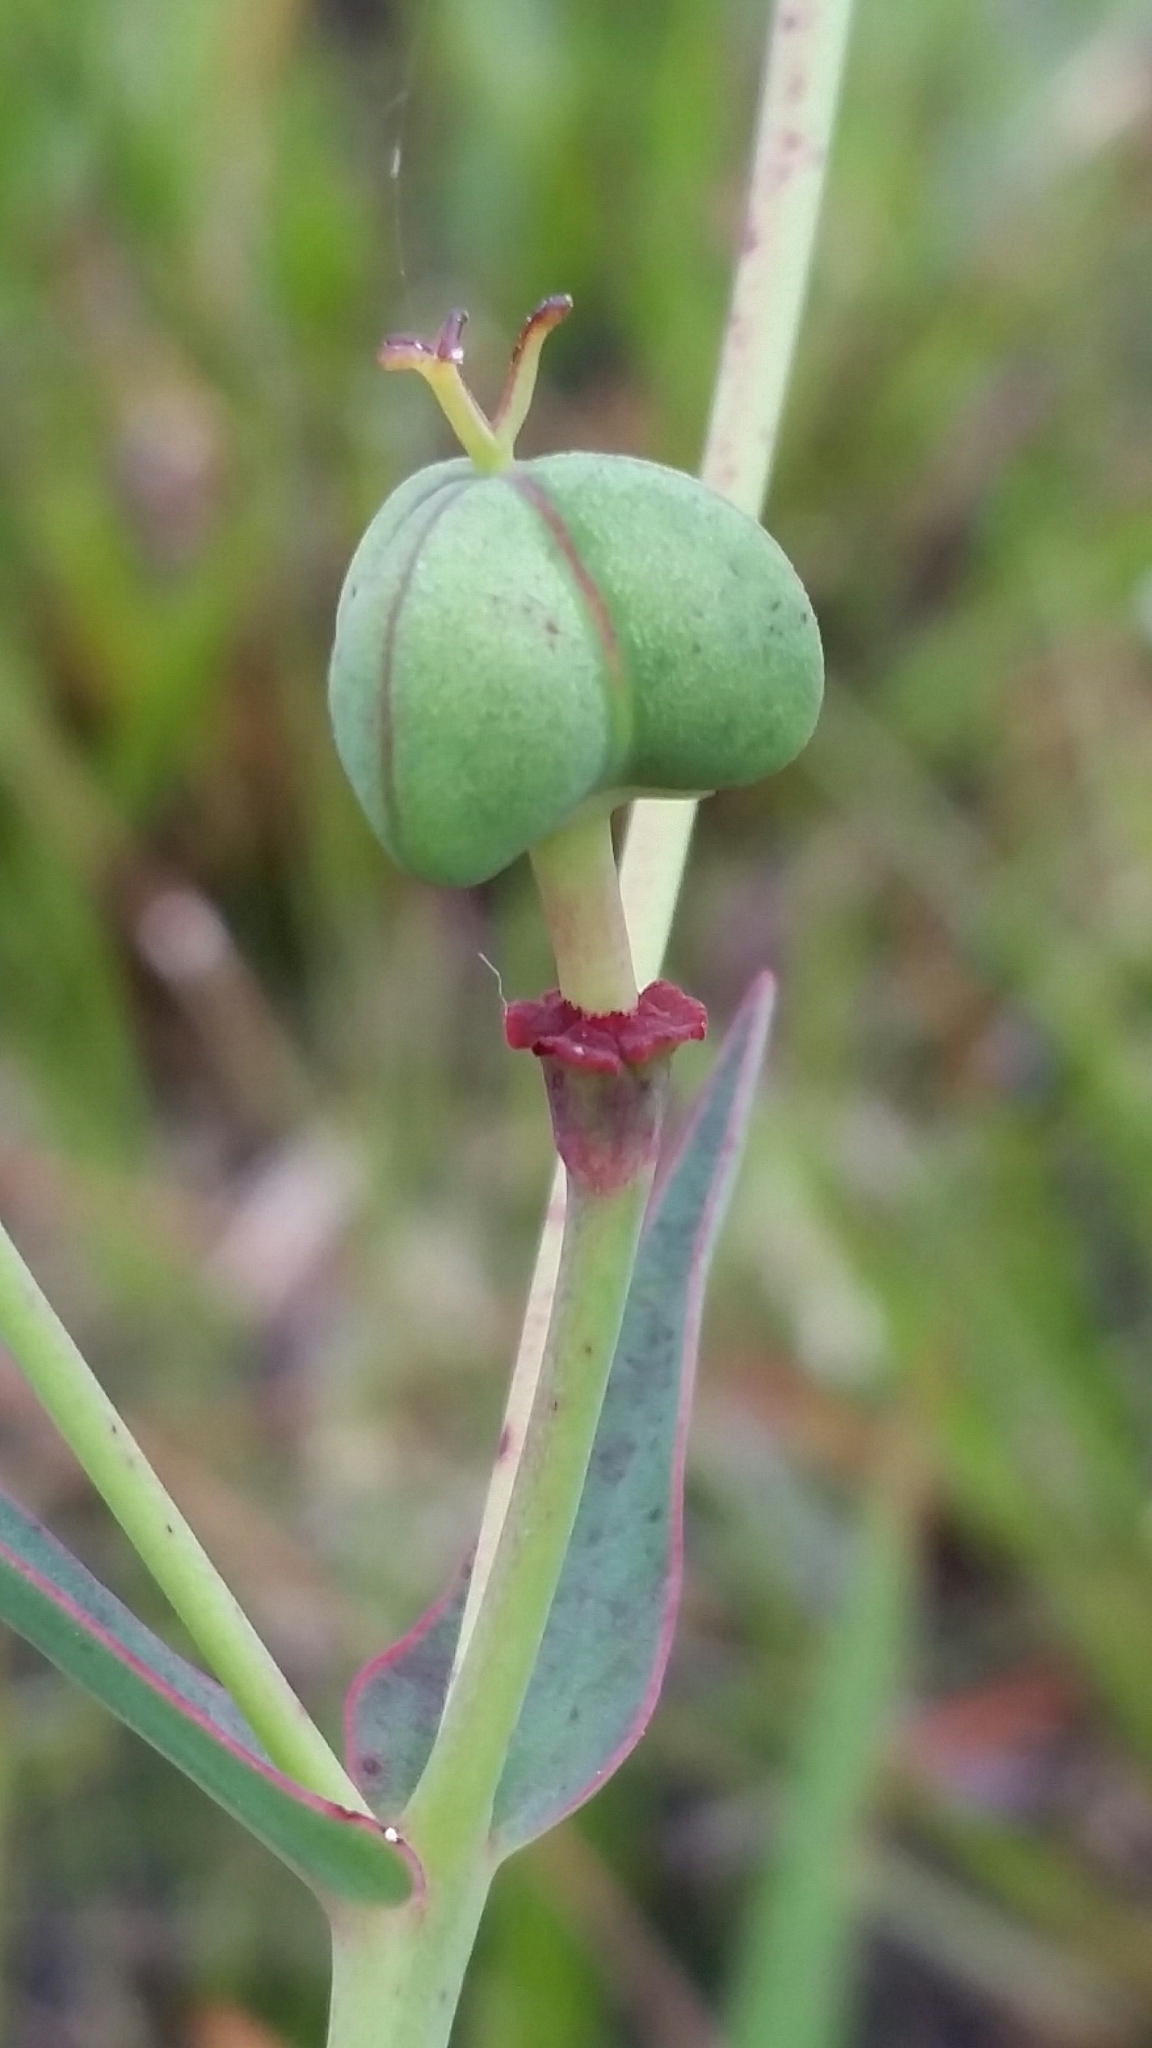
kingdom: Plantae
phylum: Tracheophyta
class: Magnoliopsida
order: Malpighiales
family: Euphorbiaceae
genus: Euphorbia
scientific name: Euphorbia inundata
